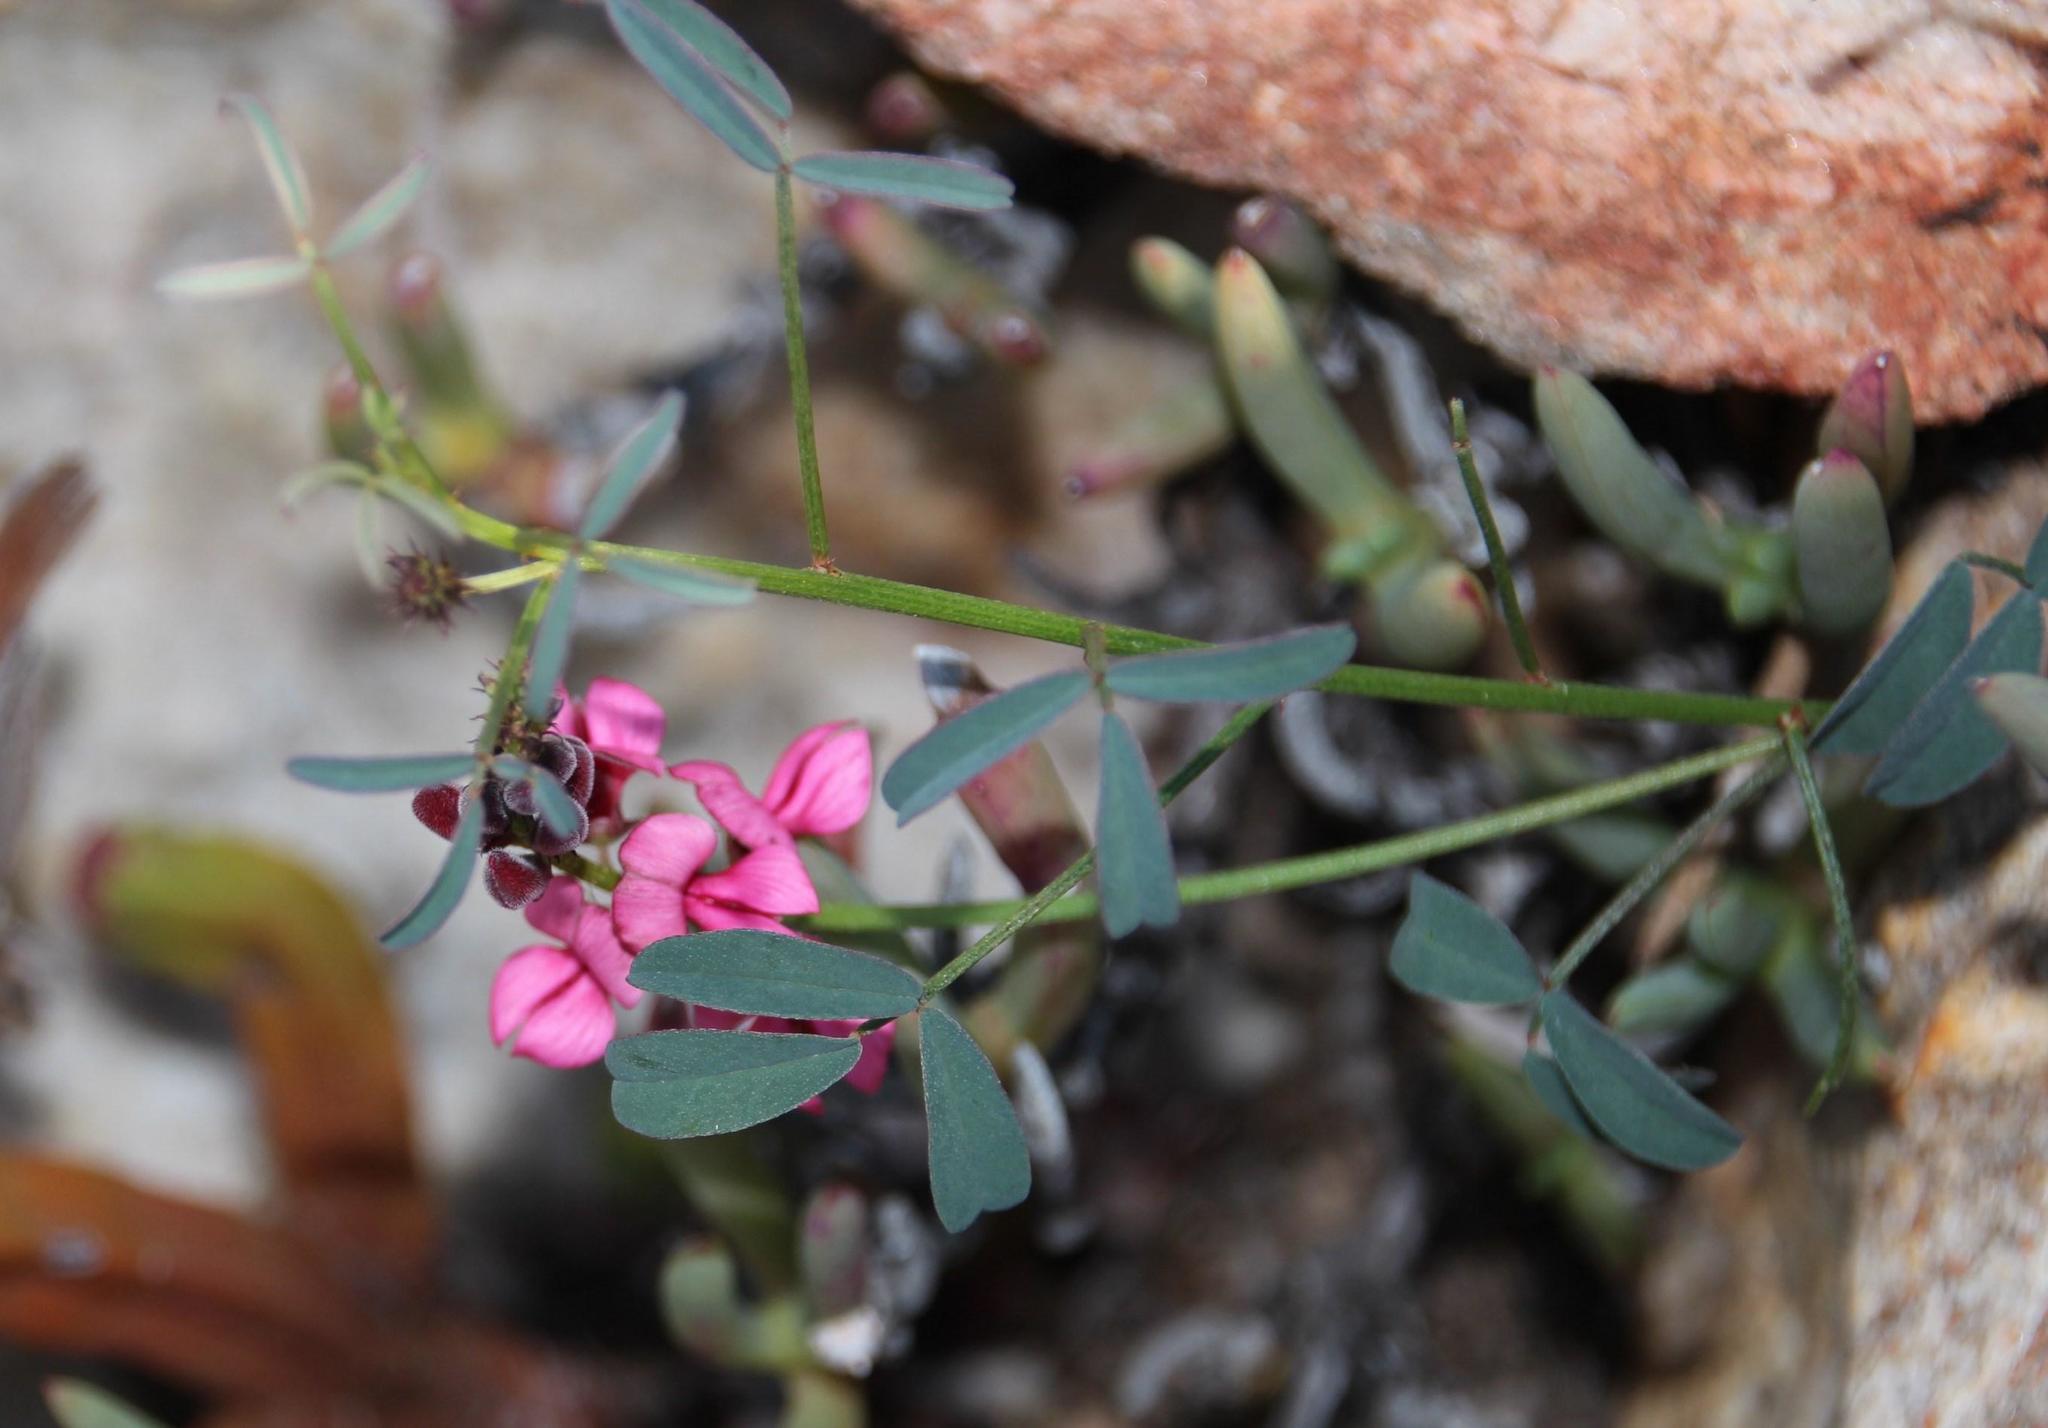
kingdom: Plantae
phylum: Tracheophyta
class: Magnoliopsida
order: Fabales
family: Fabaceae
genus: Indigofera
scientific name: Indigofera heterophylla
